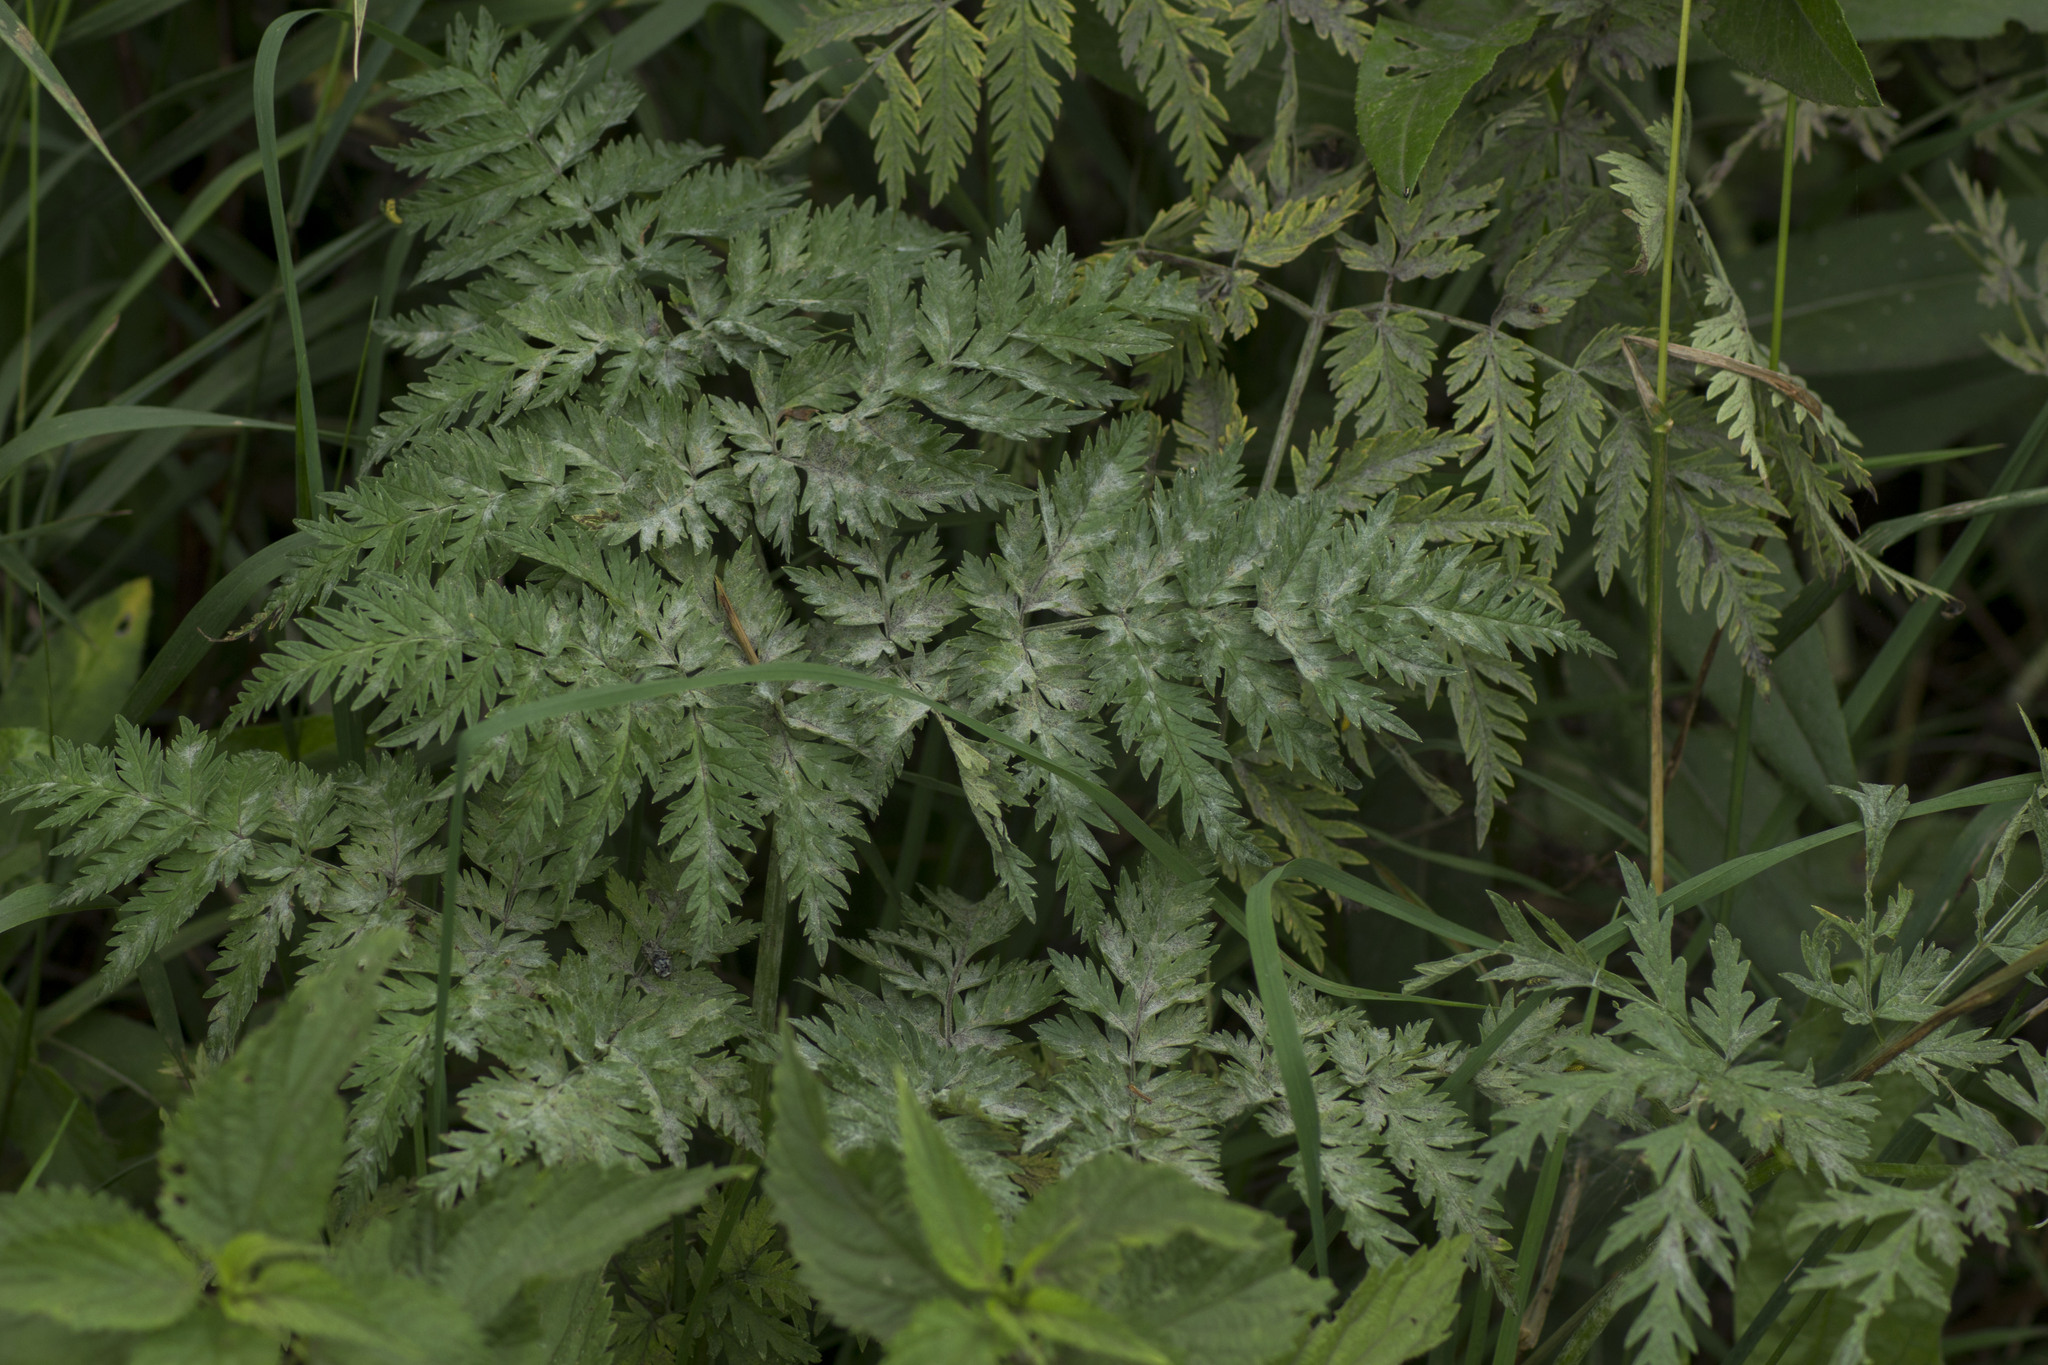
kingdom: Plantae
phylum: Tracheophyta
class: Magnoliopsida
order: Apiales
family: Apiaceae
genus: Anthriscus
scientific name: Anthriscus sylvestris
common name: Cow parsley
